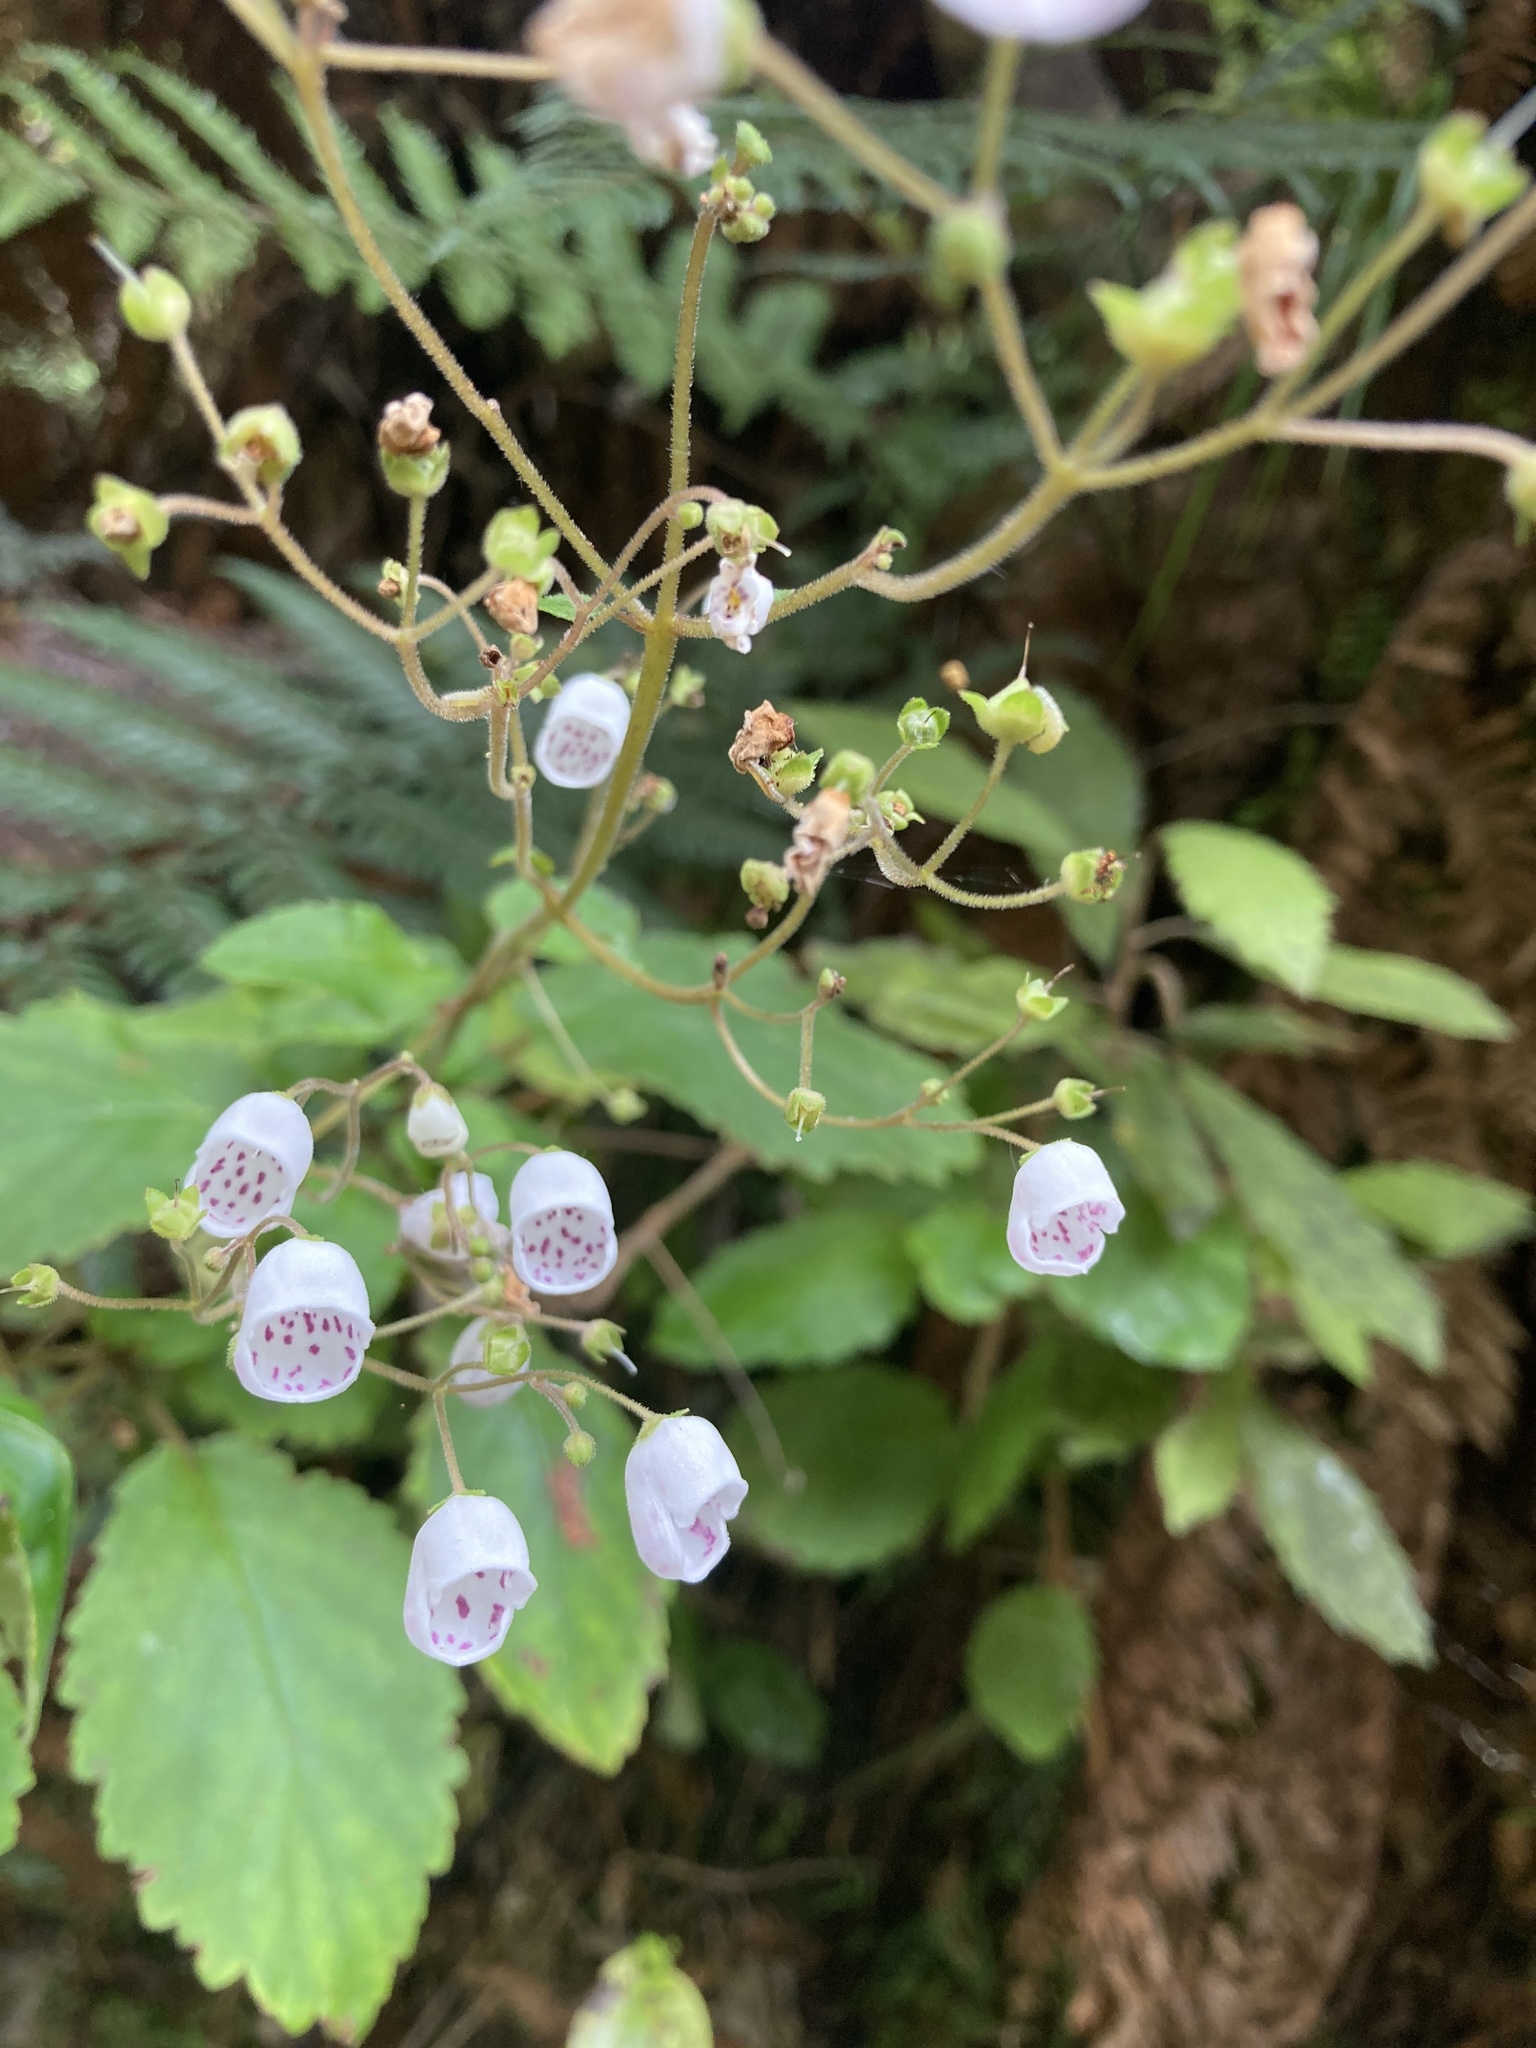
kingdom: Plantae
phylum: Tracheophyta
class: Magnoliopsida
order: Lamiales
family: Calceolariaceae
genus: Jovellana
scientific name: Jovellana sinclairii
